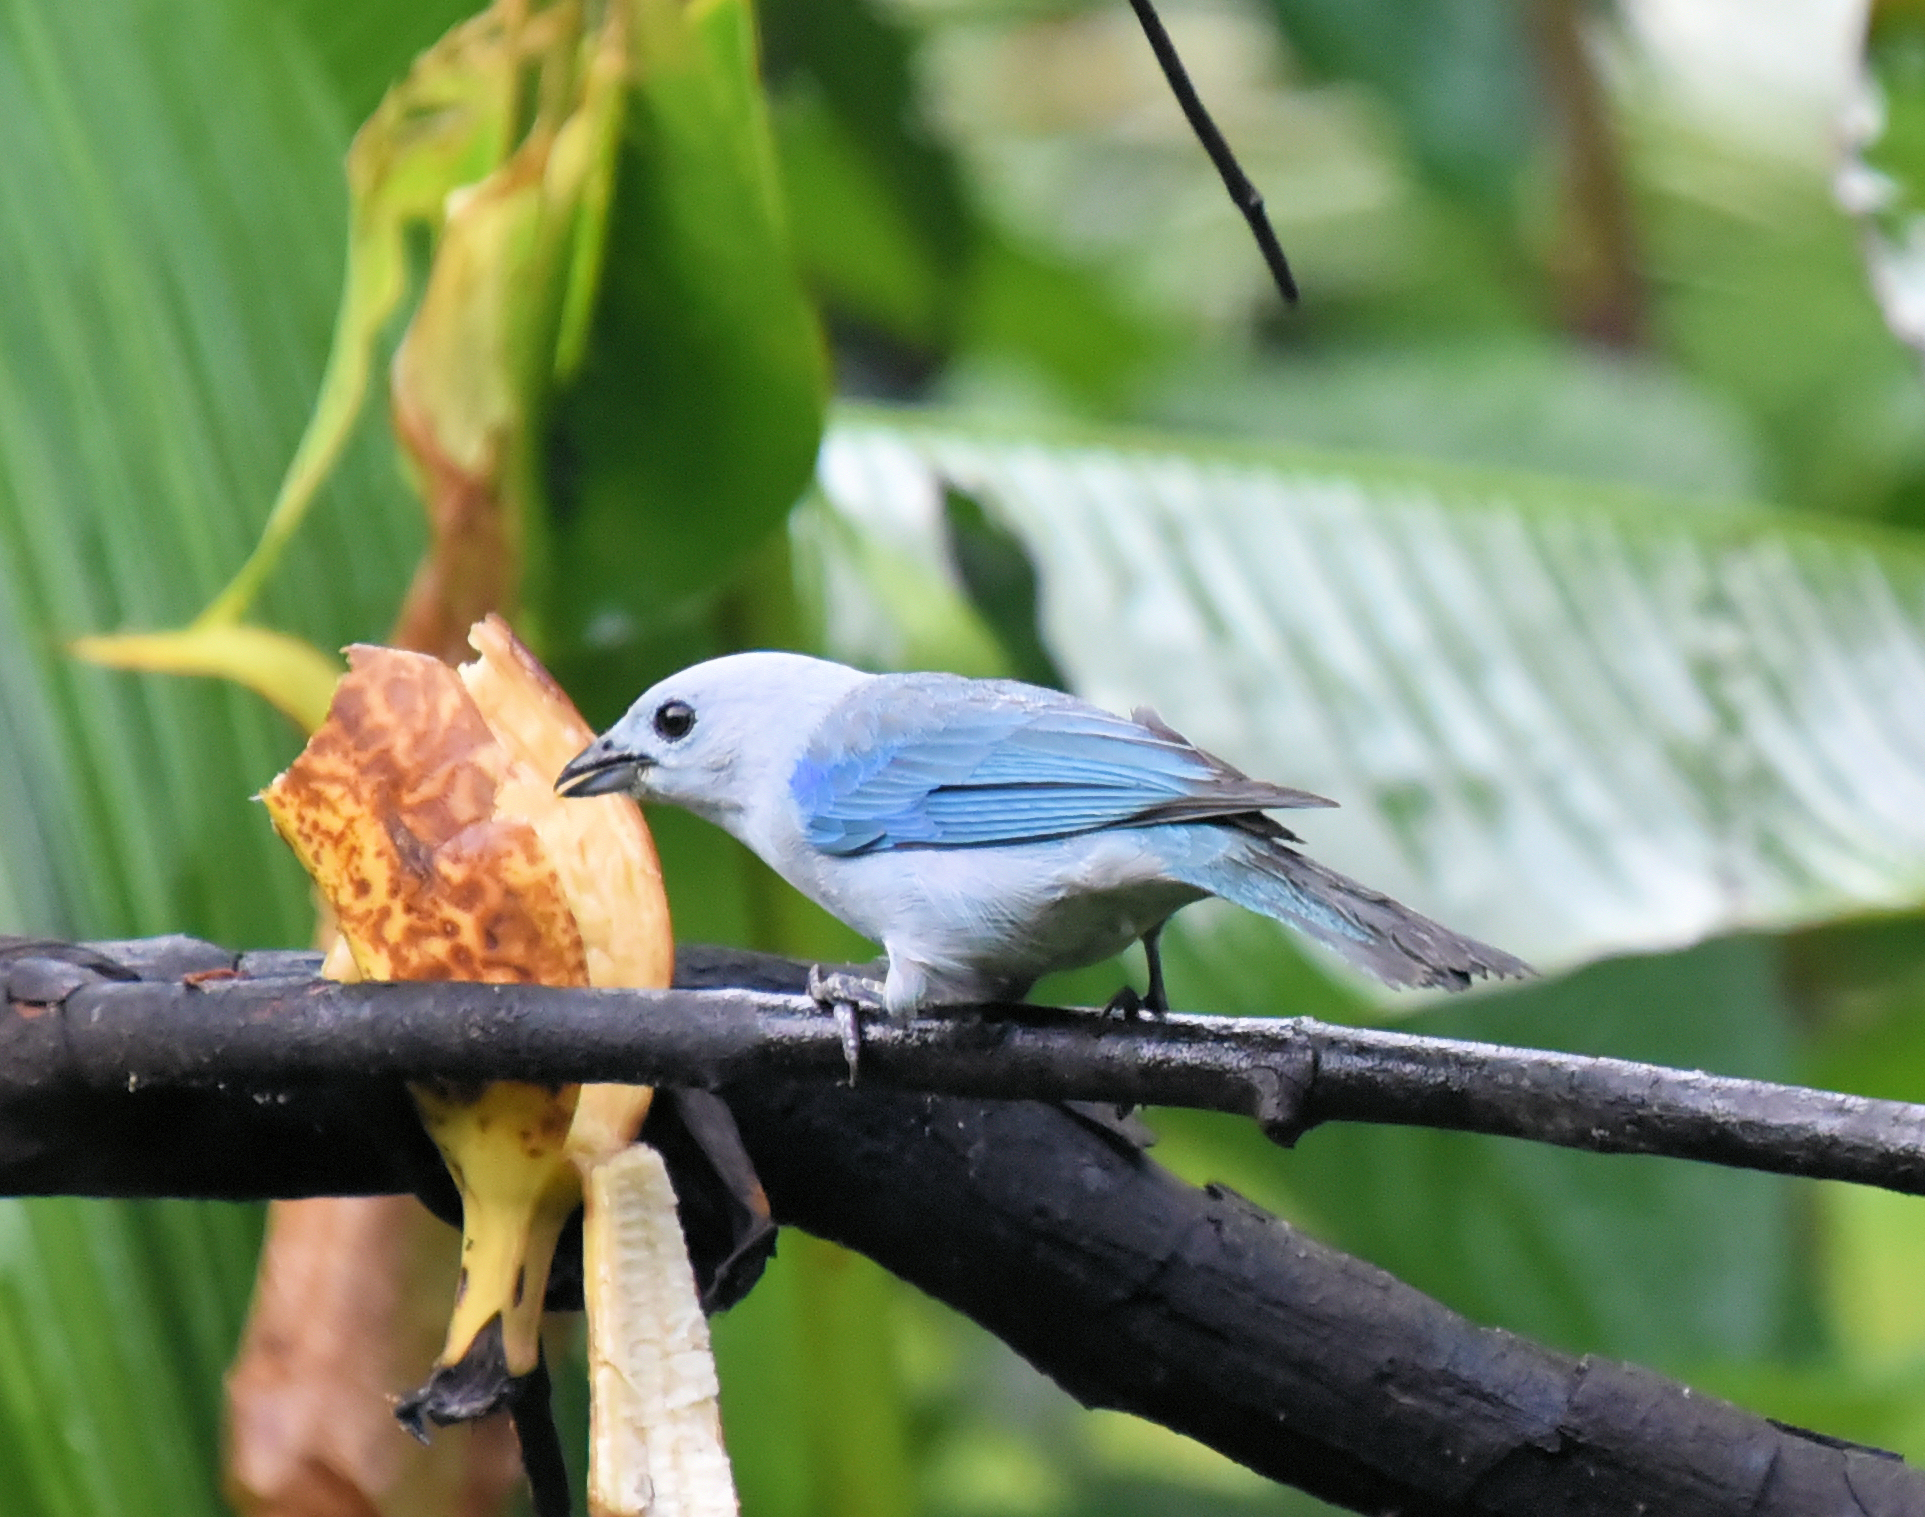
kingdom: Animalia
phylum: Chordata
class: Aves
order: Passeriformes
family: Thraupidae
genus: Thraupis
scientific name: Thraupis episcopus
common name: Blue-grey tanager
